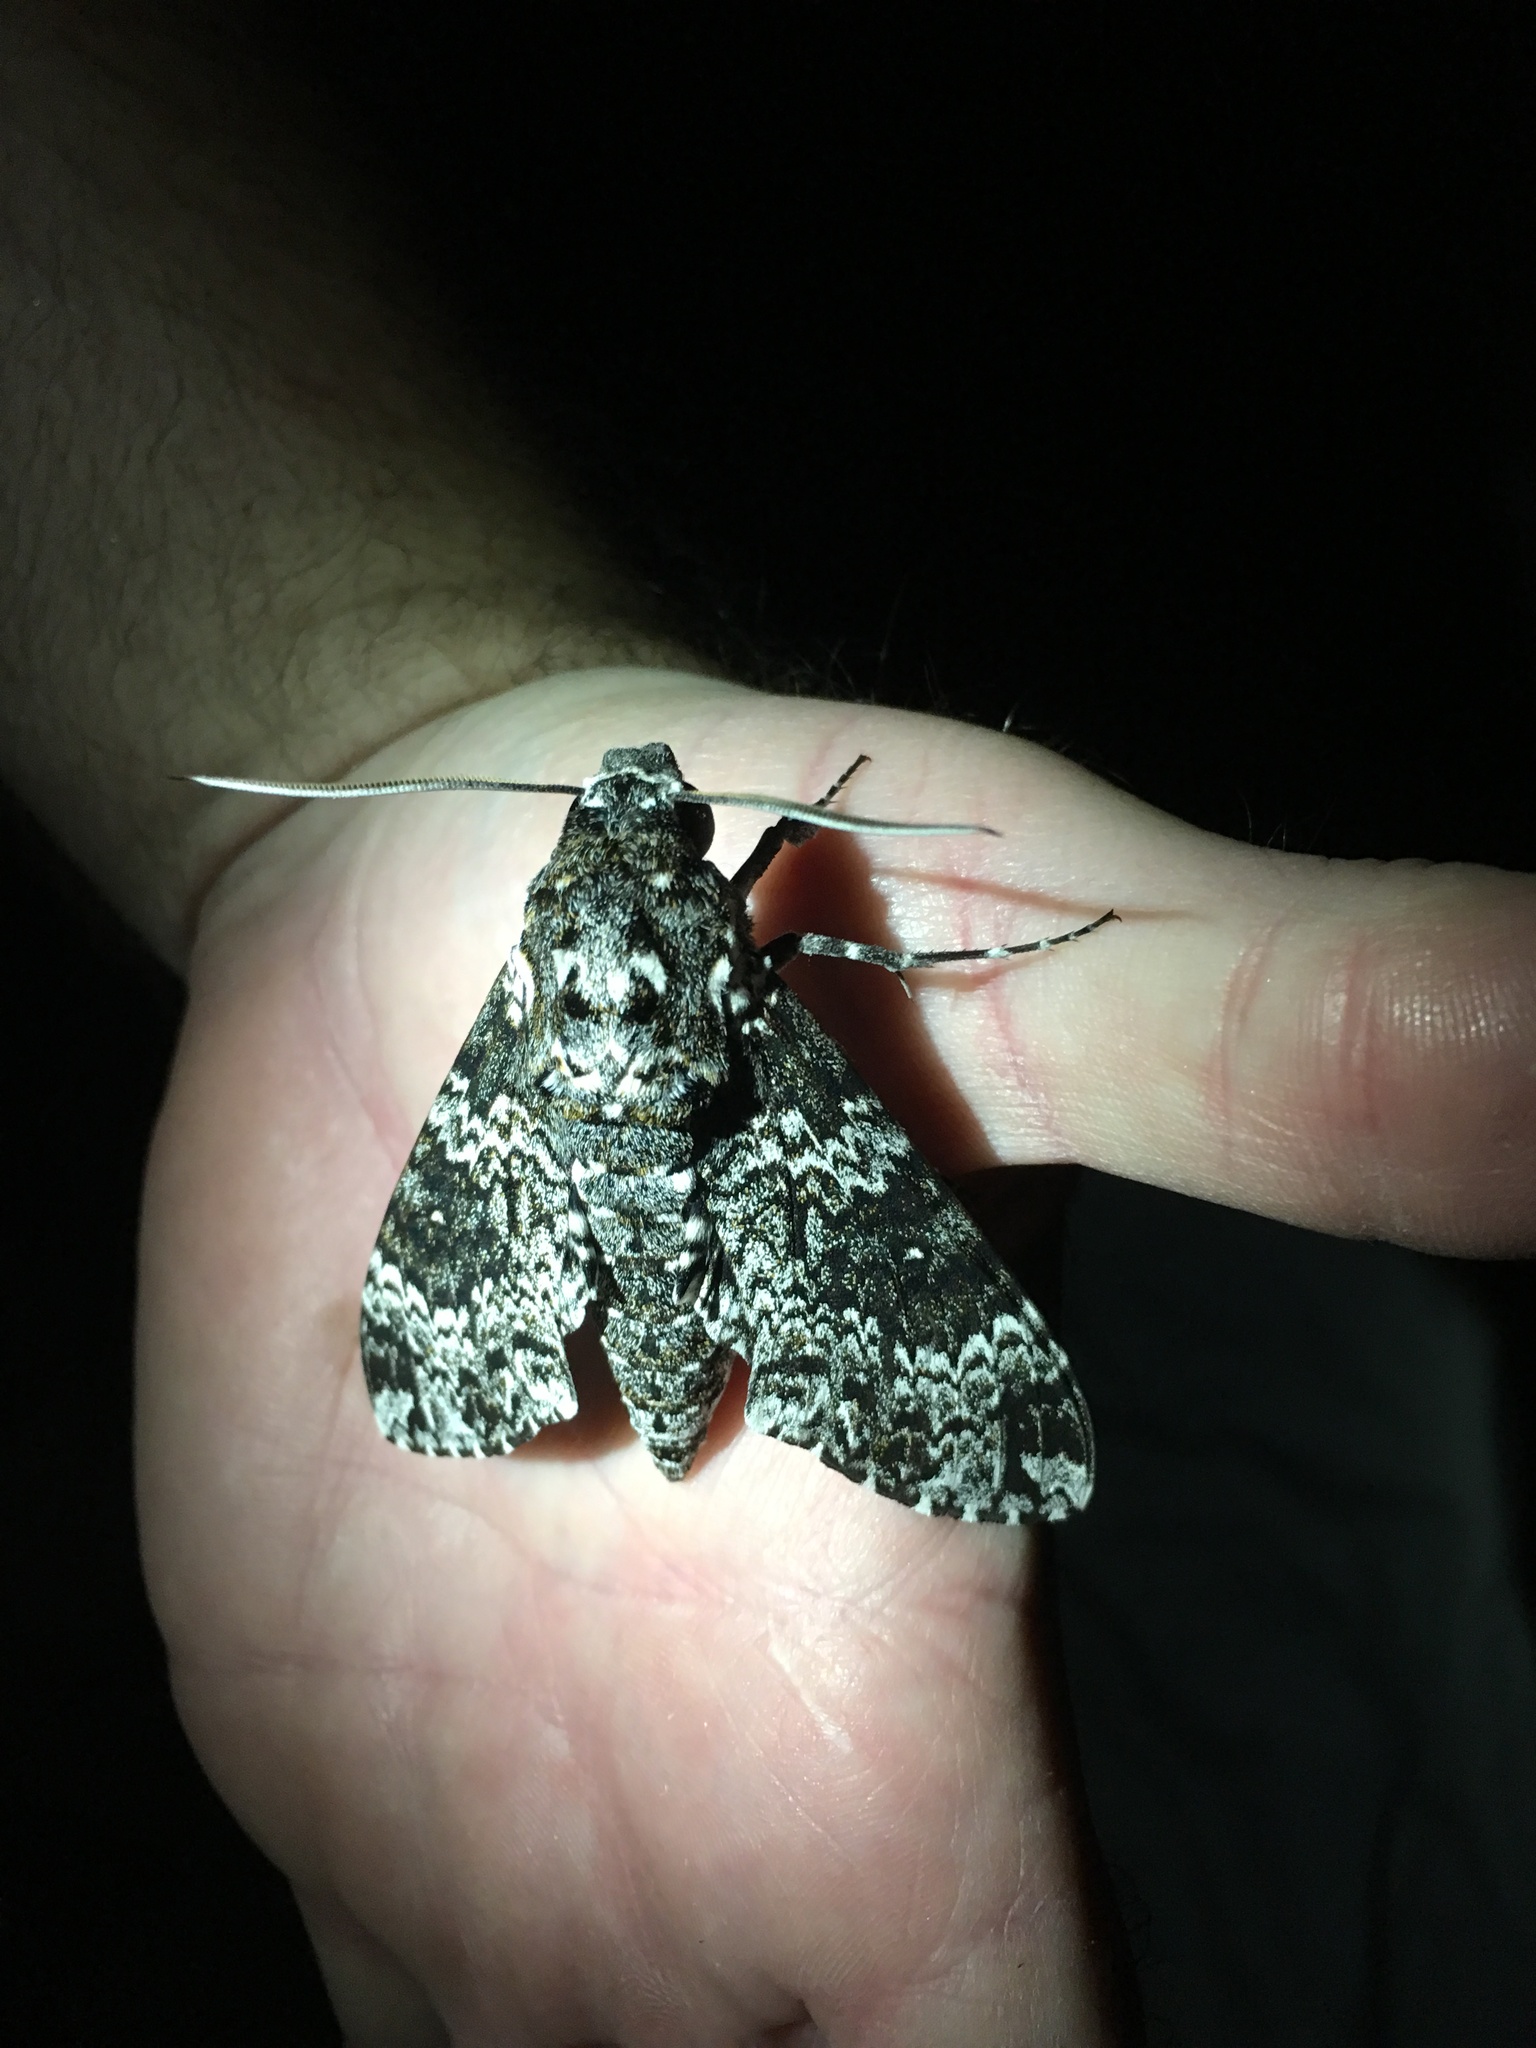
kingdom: Animalia
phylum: Arthropoda
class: Insecta
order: Lepidoptera
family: Sphingidae
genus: Manduca
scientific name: Manduca rustica
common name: Rustic sphinx
